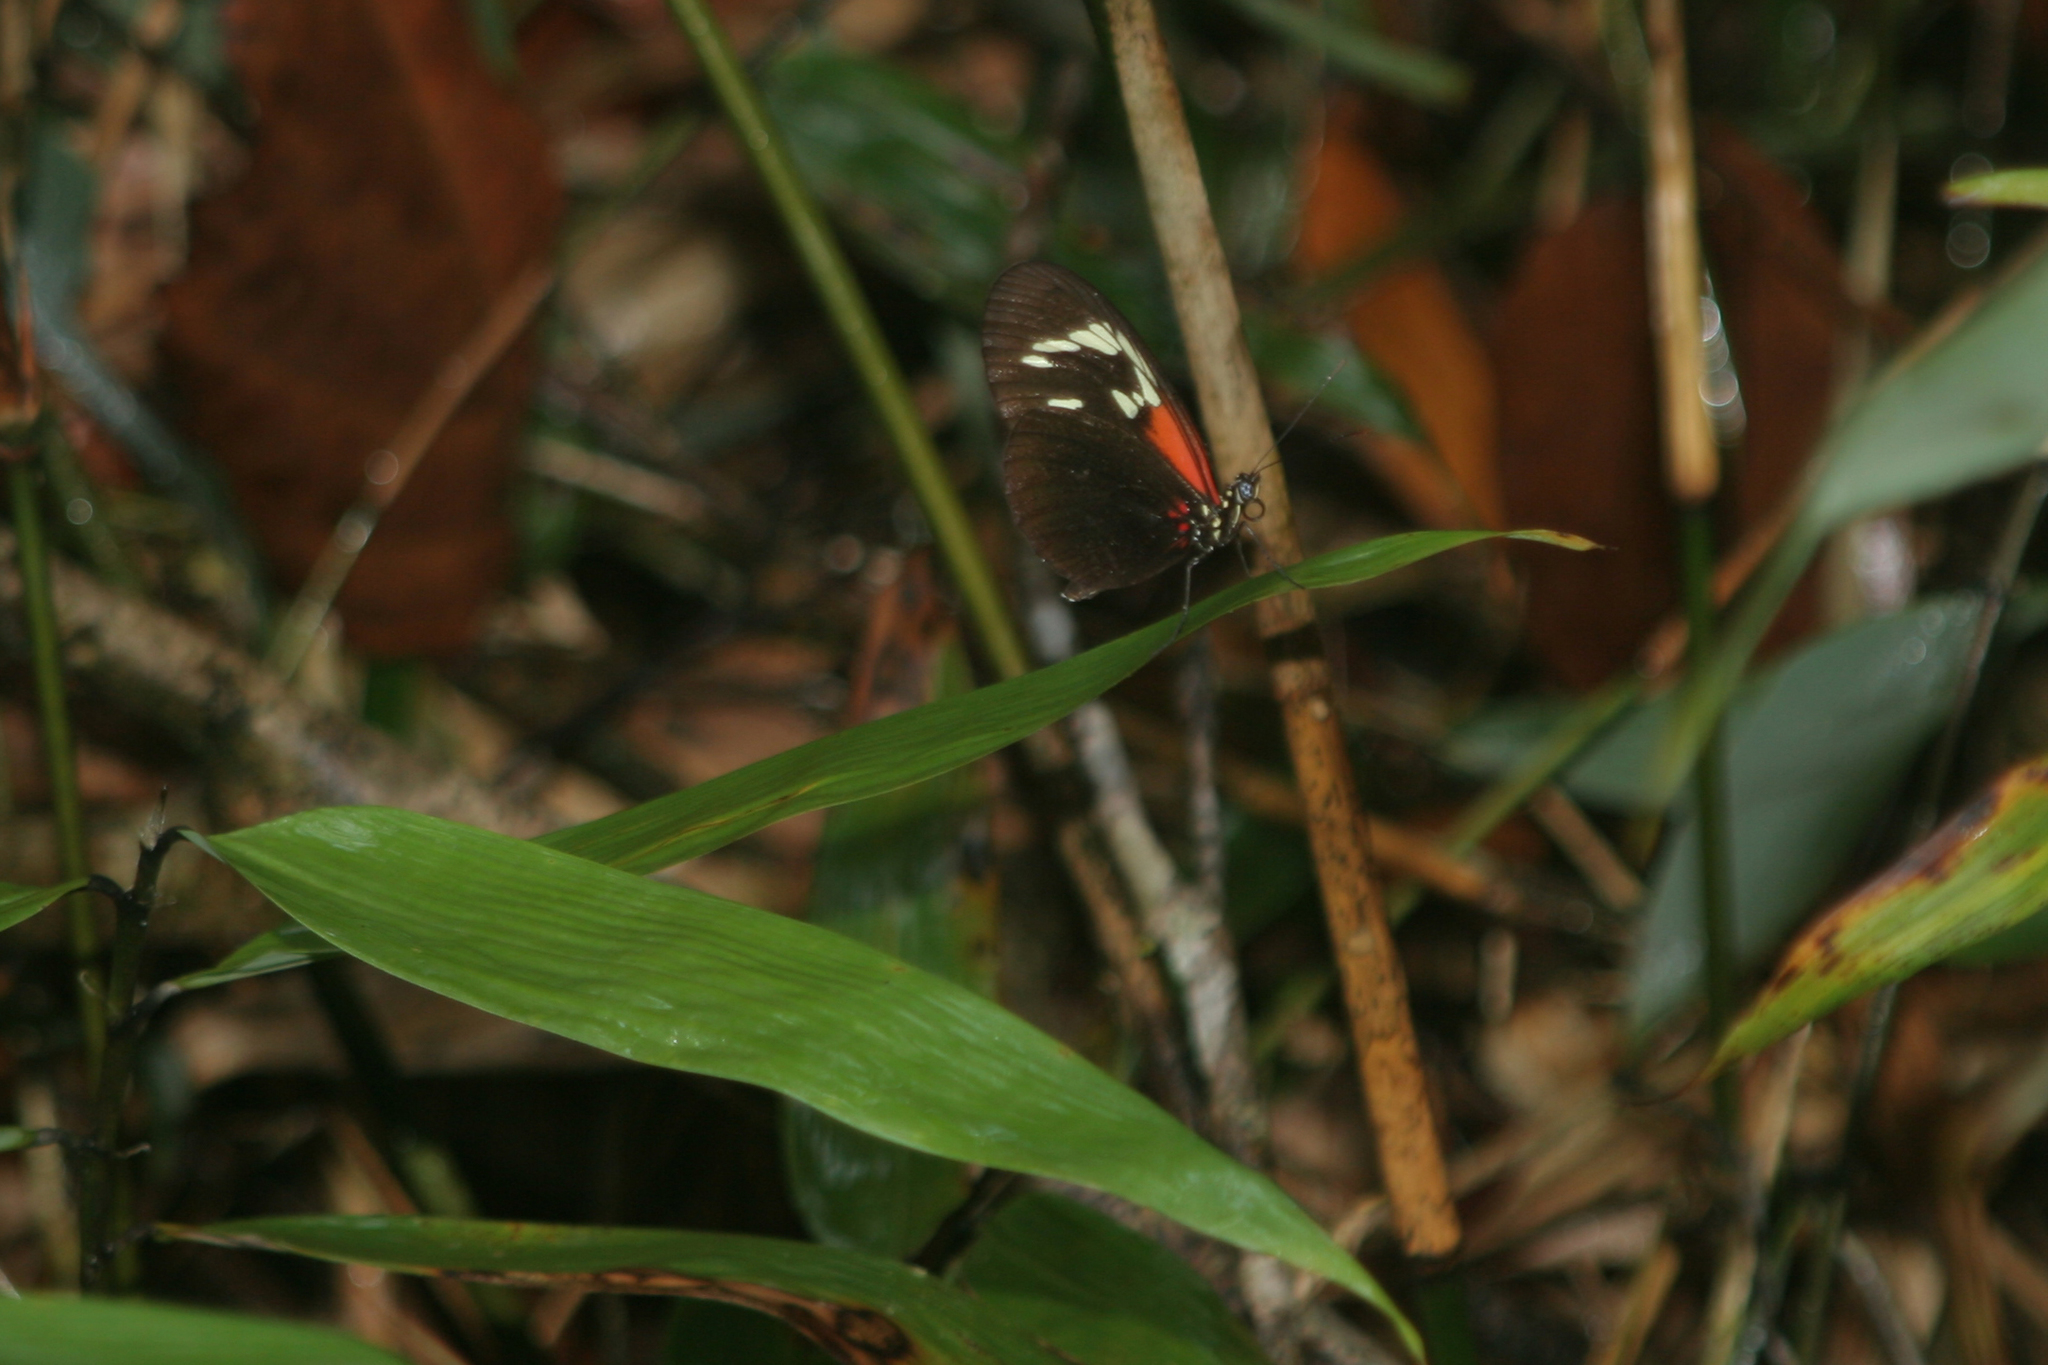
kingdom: Animalia
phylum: Arthropoda
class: Insecta
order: Lepidoptera
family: Nymphalidae
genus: Heliconius
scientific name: Heliconius erato
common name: Common patch longwing
